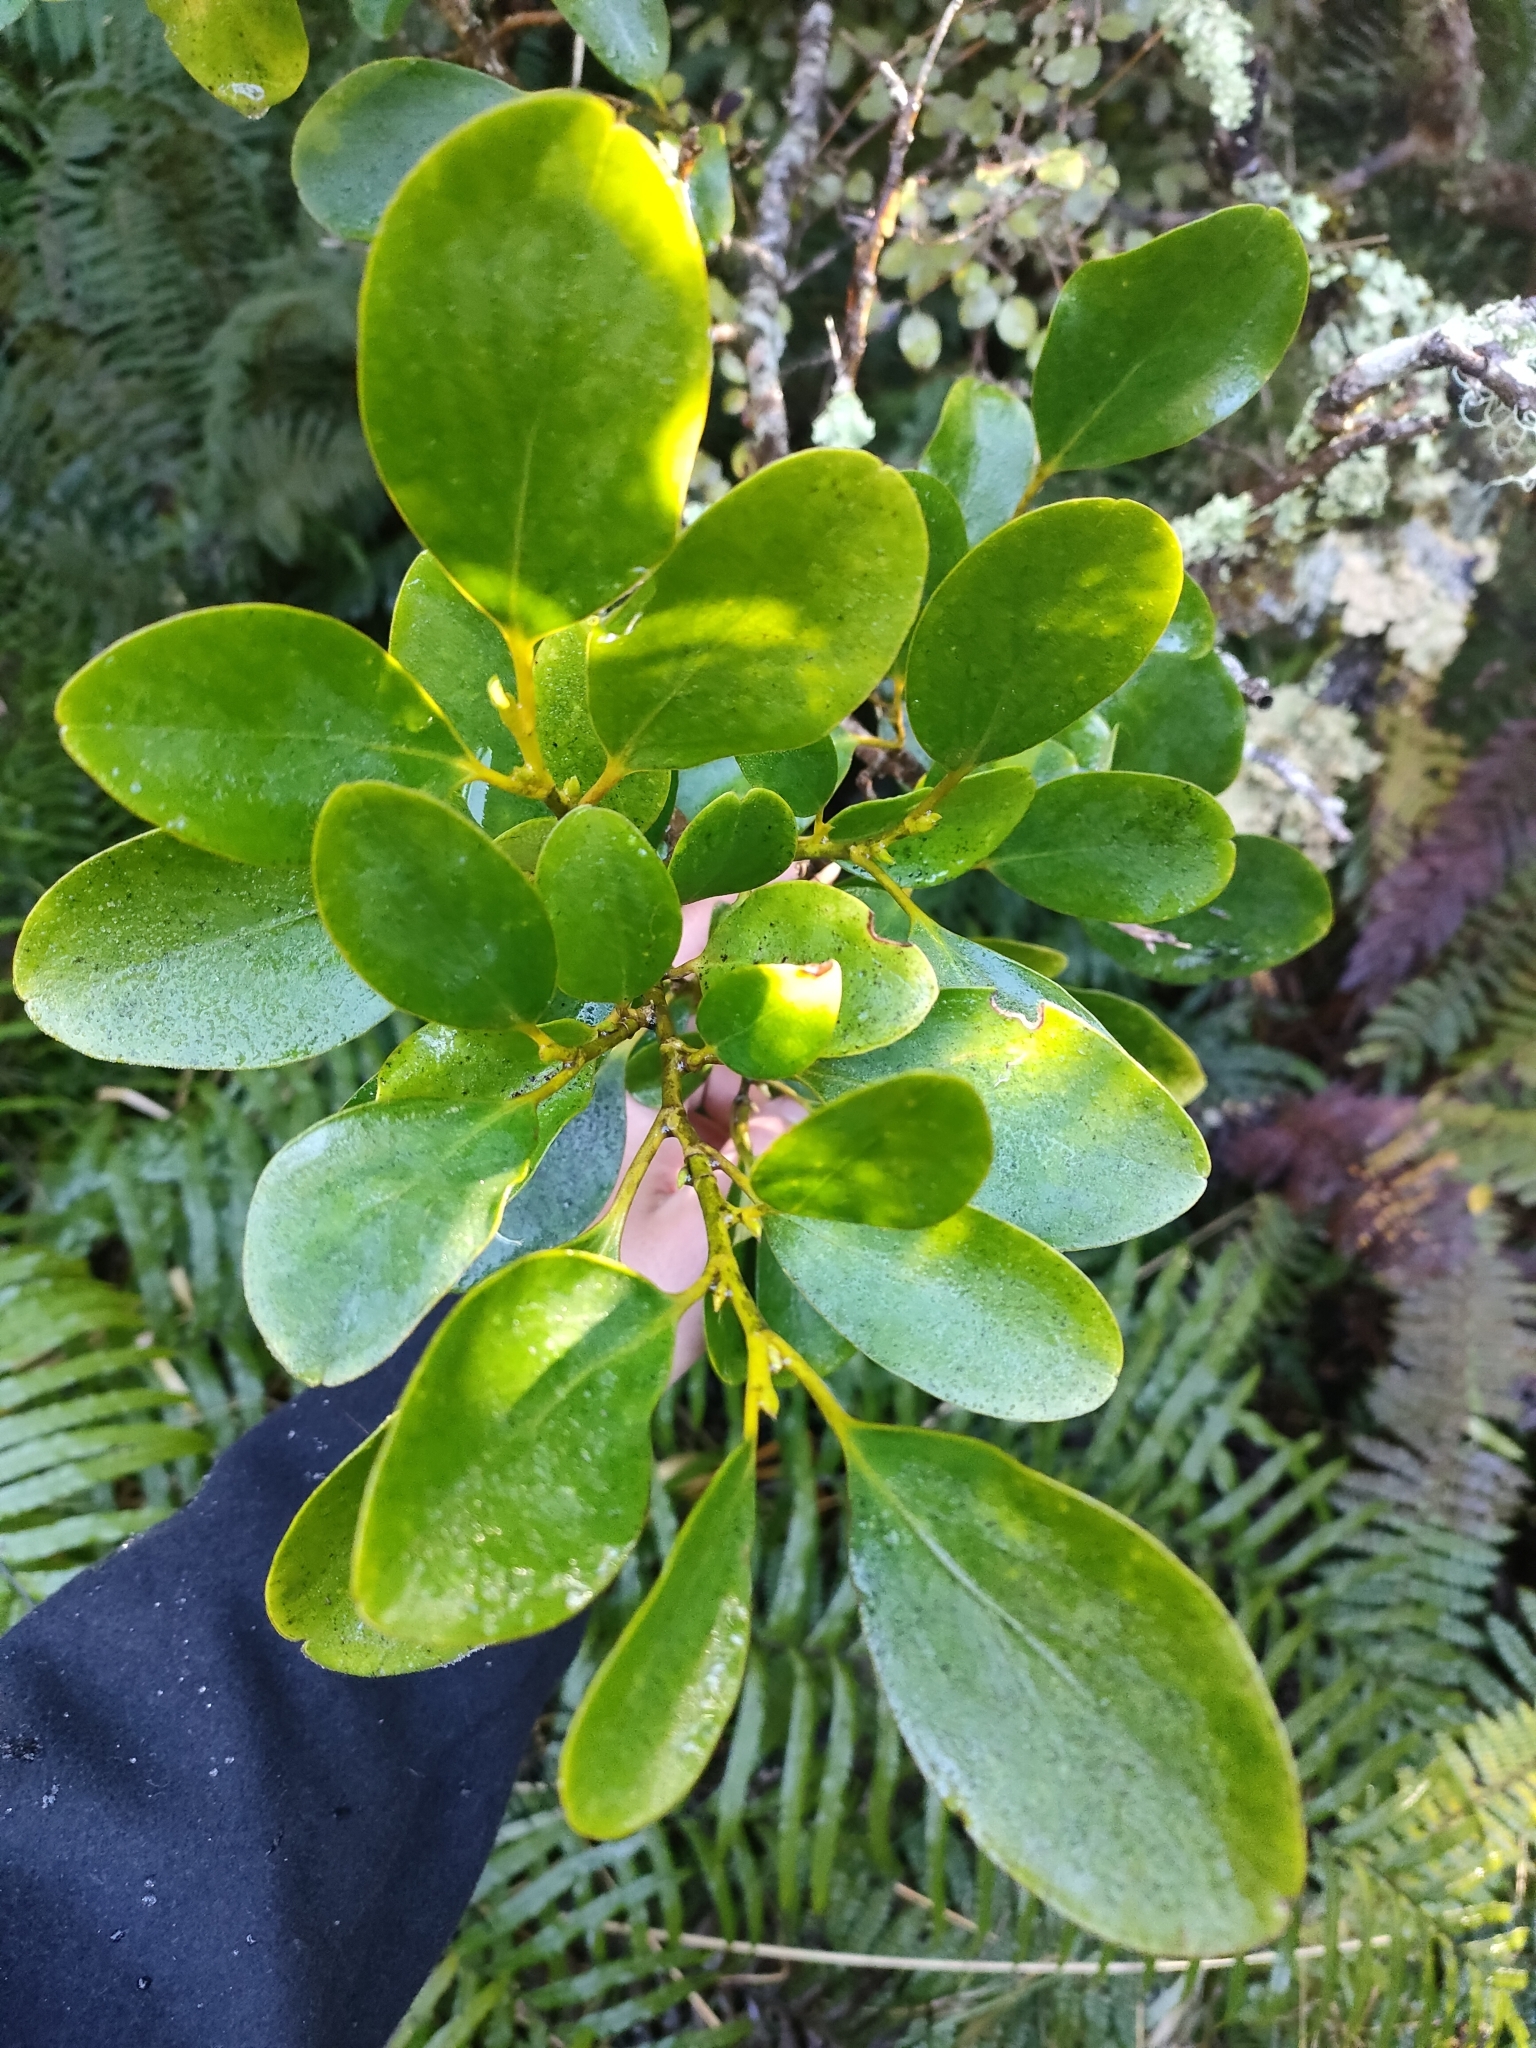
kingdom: Plantae
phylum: Tracheophyta
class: Magnoliopsida
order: Apiales
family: Griseliniaceae
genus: Griselinia
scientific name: Griselinia littoralis
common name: New zealand broadleaf
